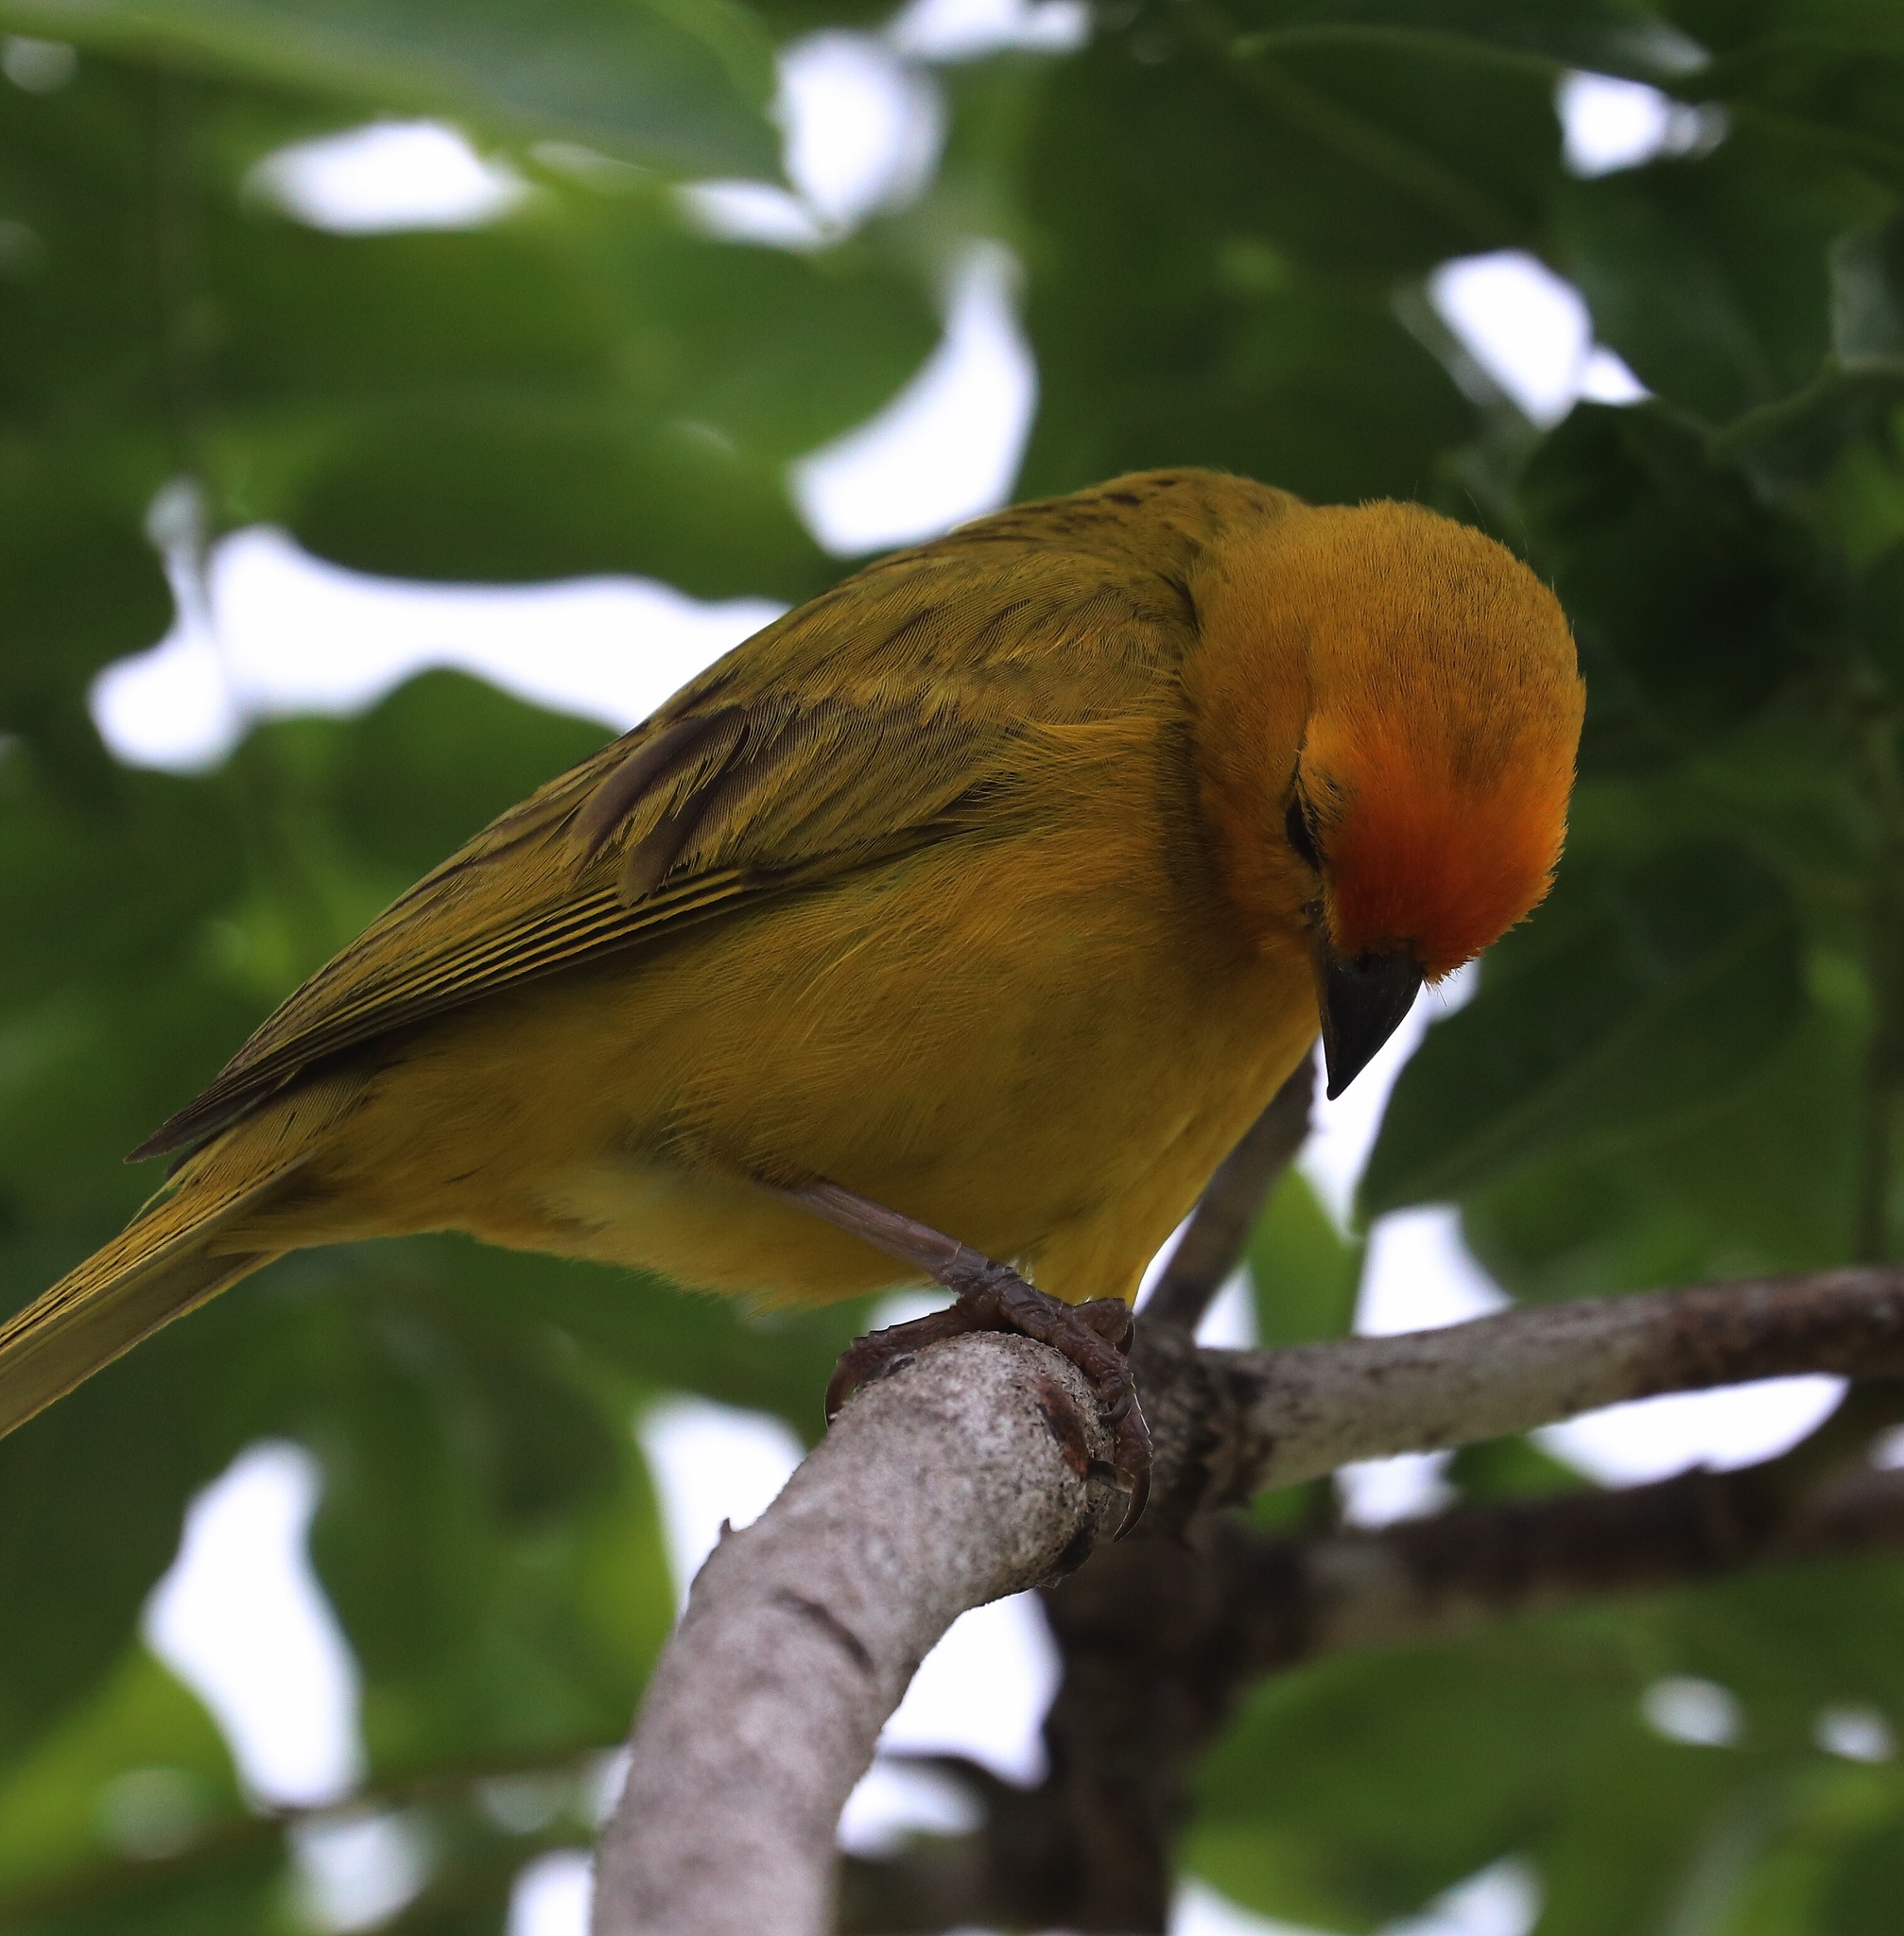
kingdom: Animalia
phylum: Chordata
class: Aves
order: Passeriformes
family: Thraupidae
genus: Sicalis
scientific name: Sicalis flaveola
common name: Saffron finch
